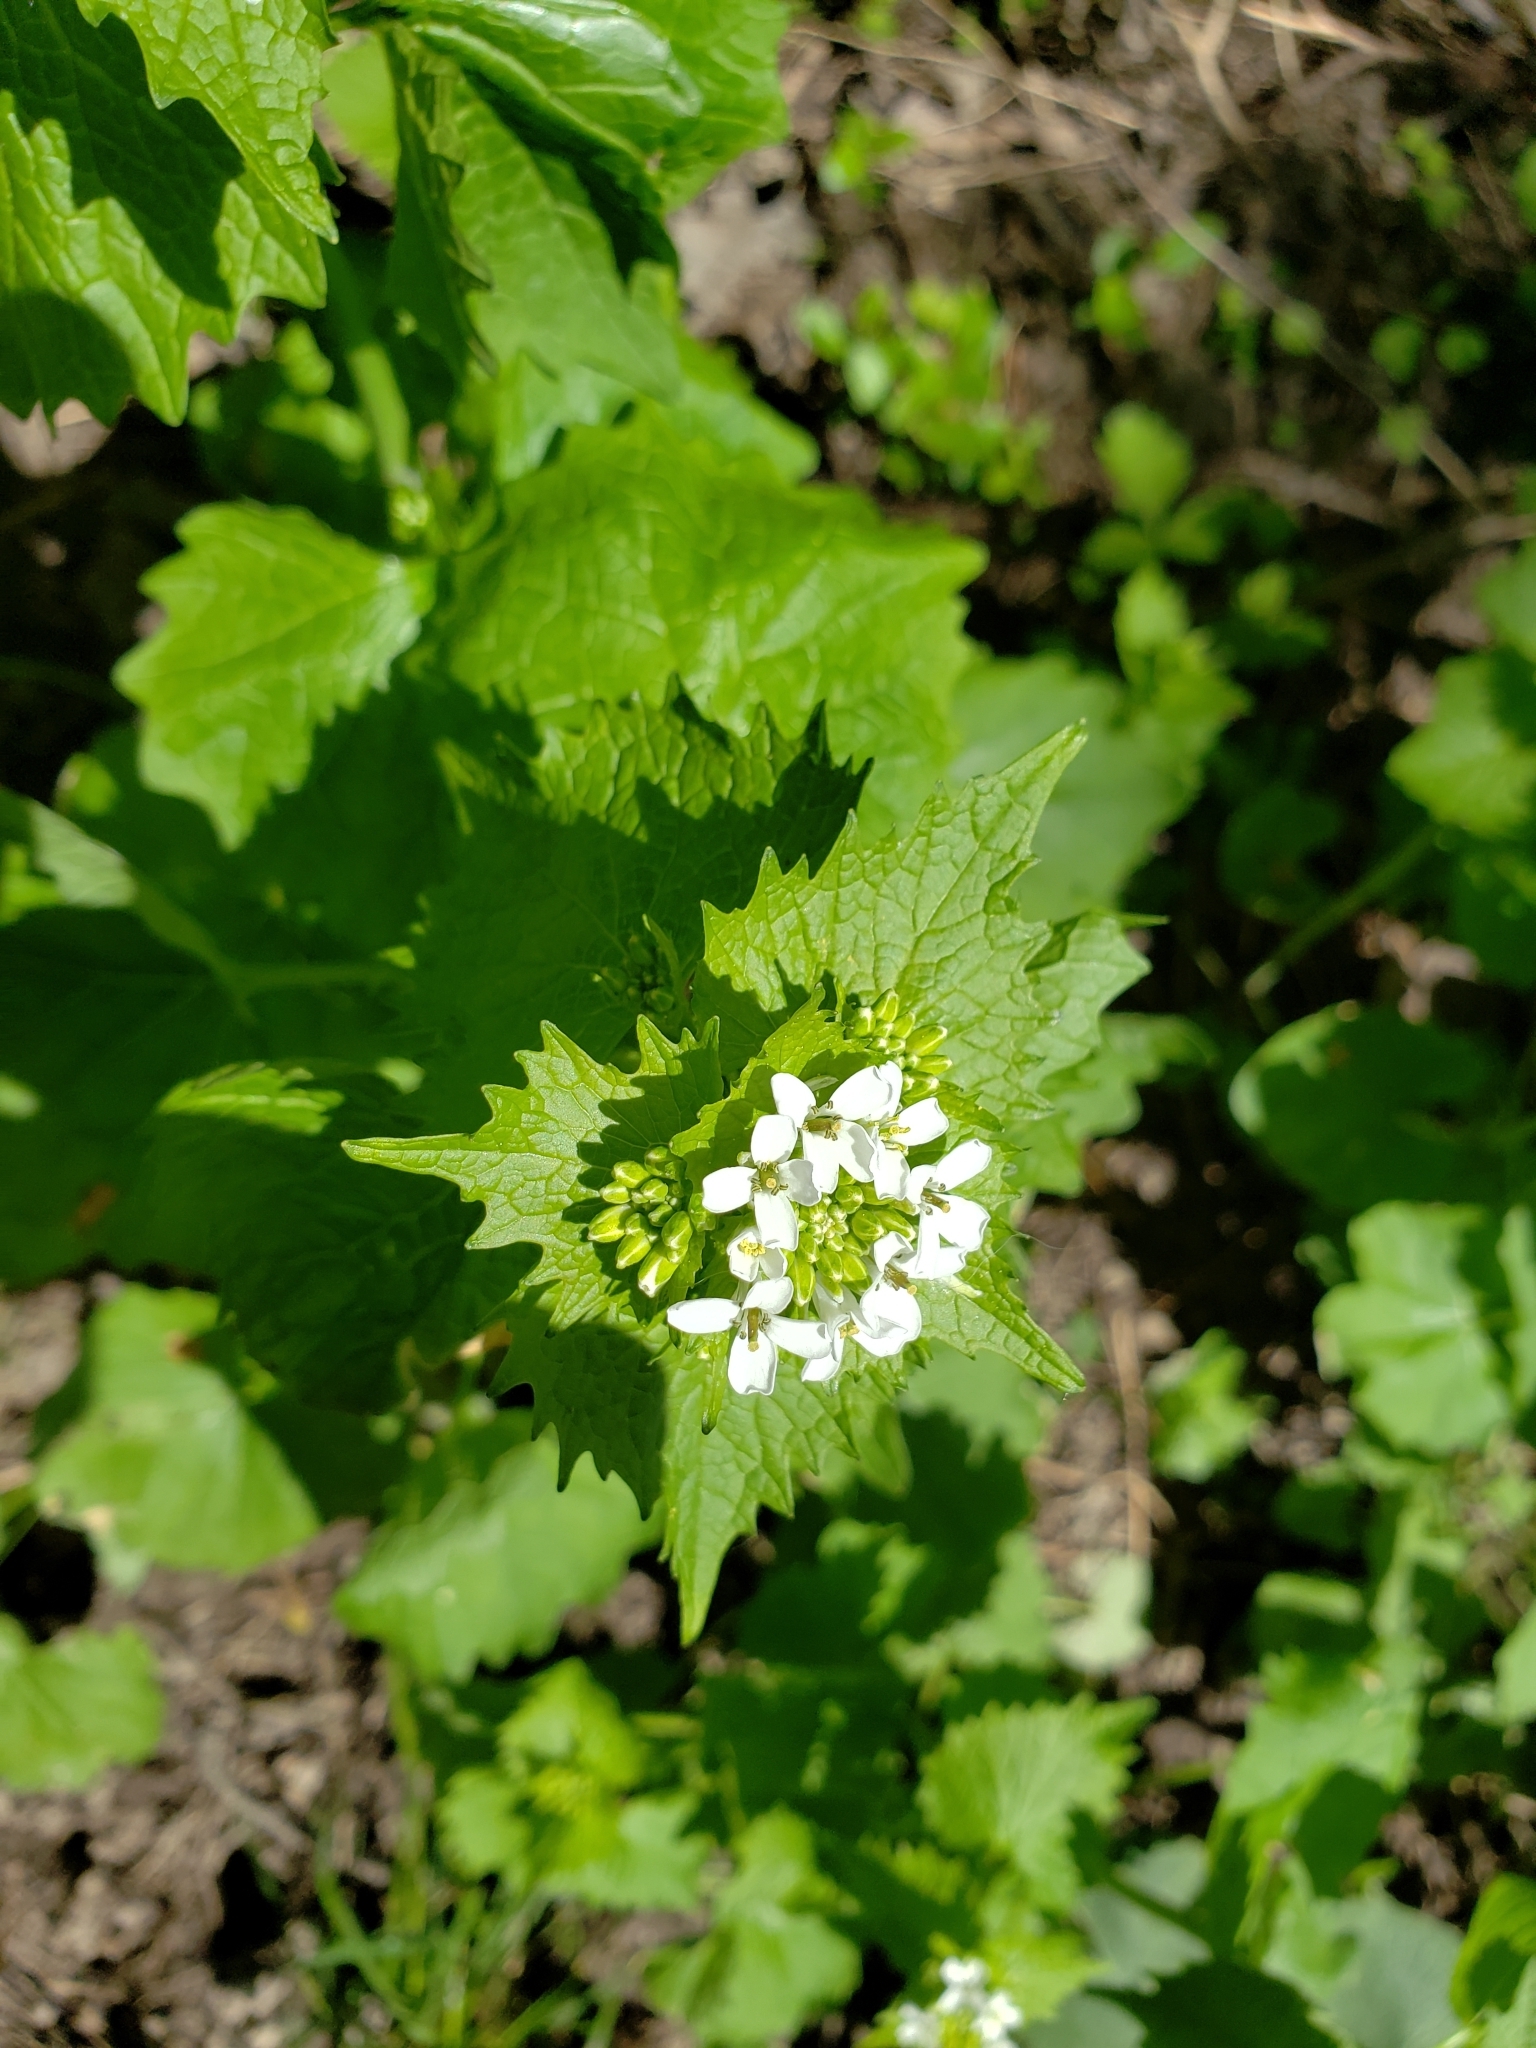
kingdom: Plantae
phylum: Tracheophyta
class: Magnoliopsida
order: Brassicales
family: Brassicaceae
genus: Alliaria
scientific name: Alliaria petiolata
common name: Garlic mustard
